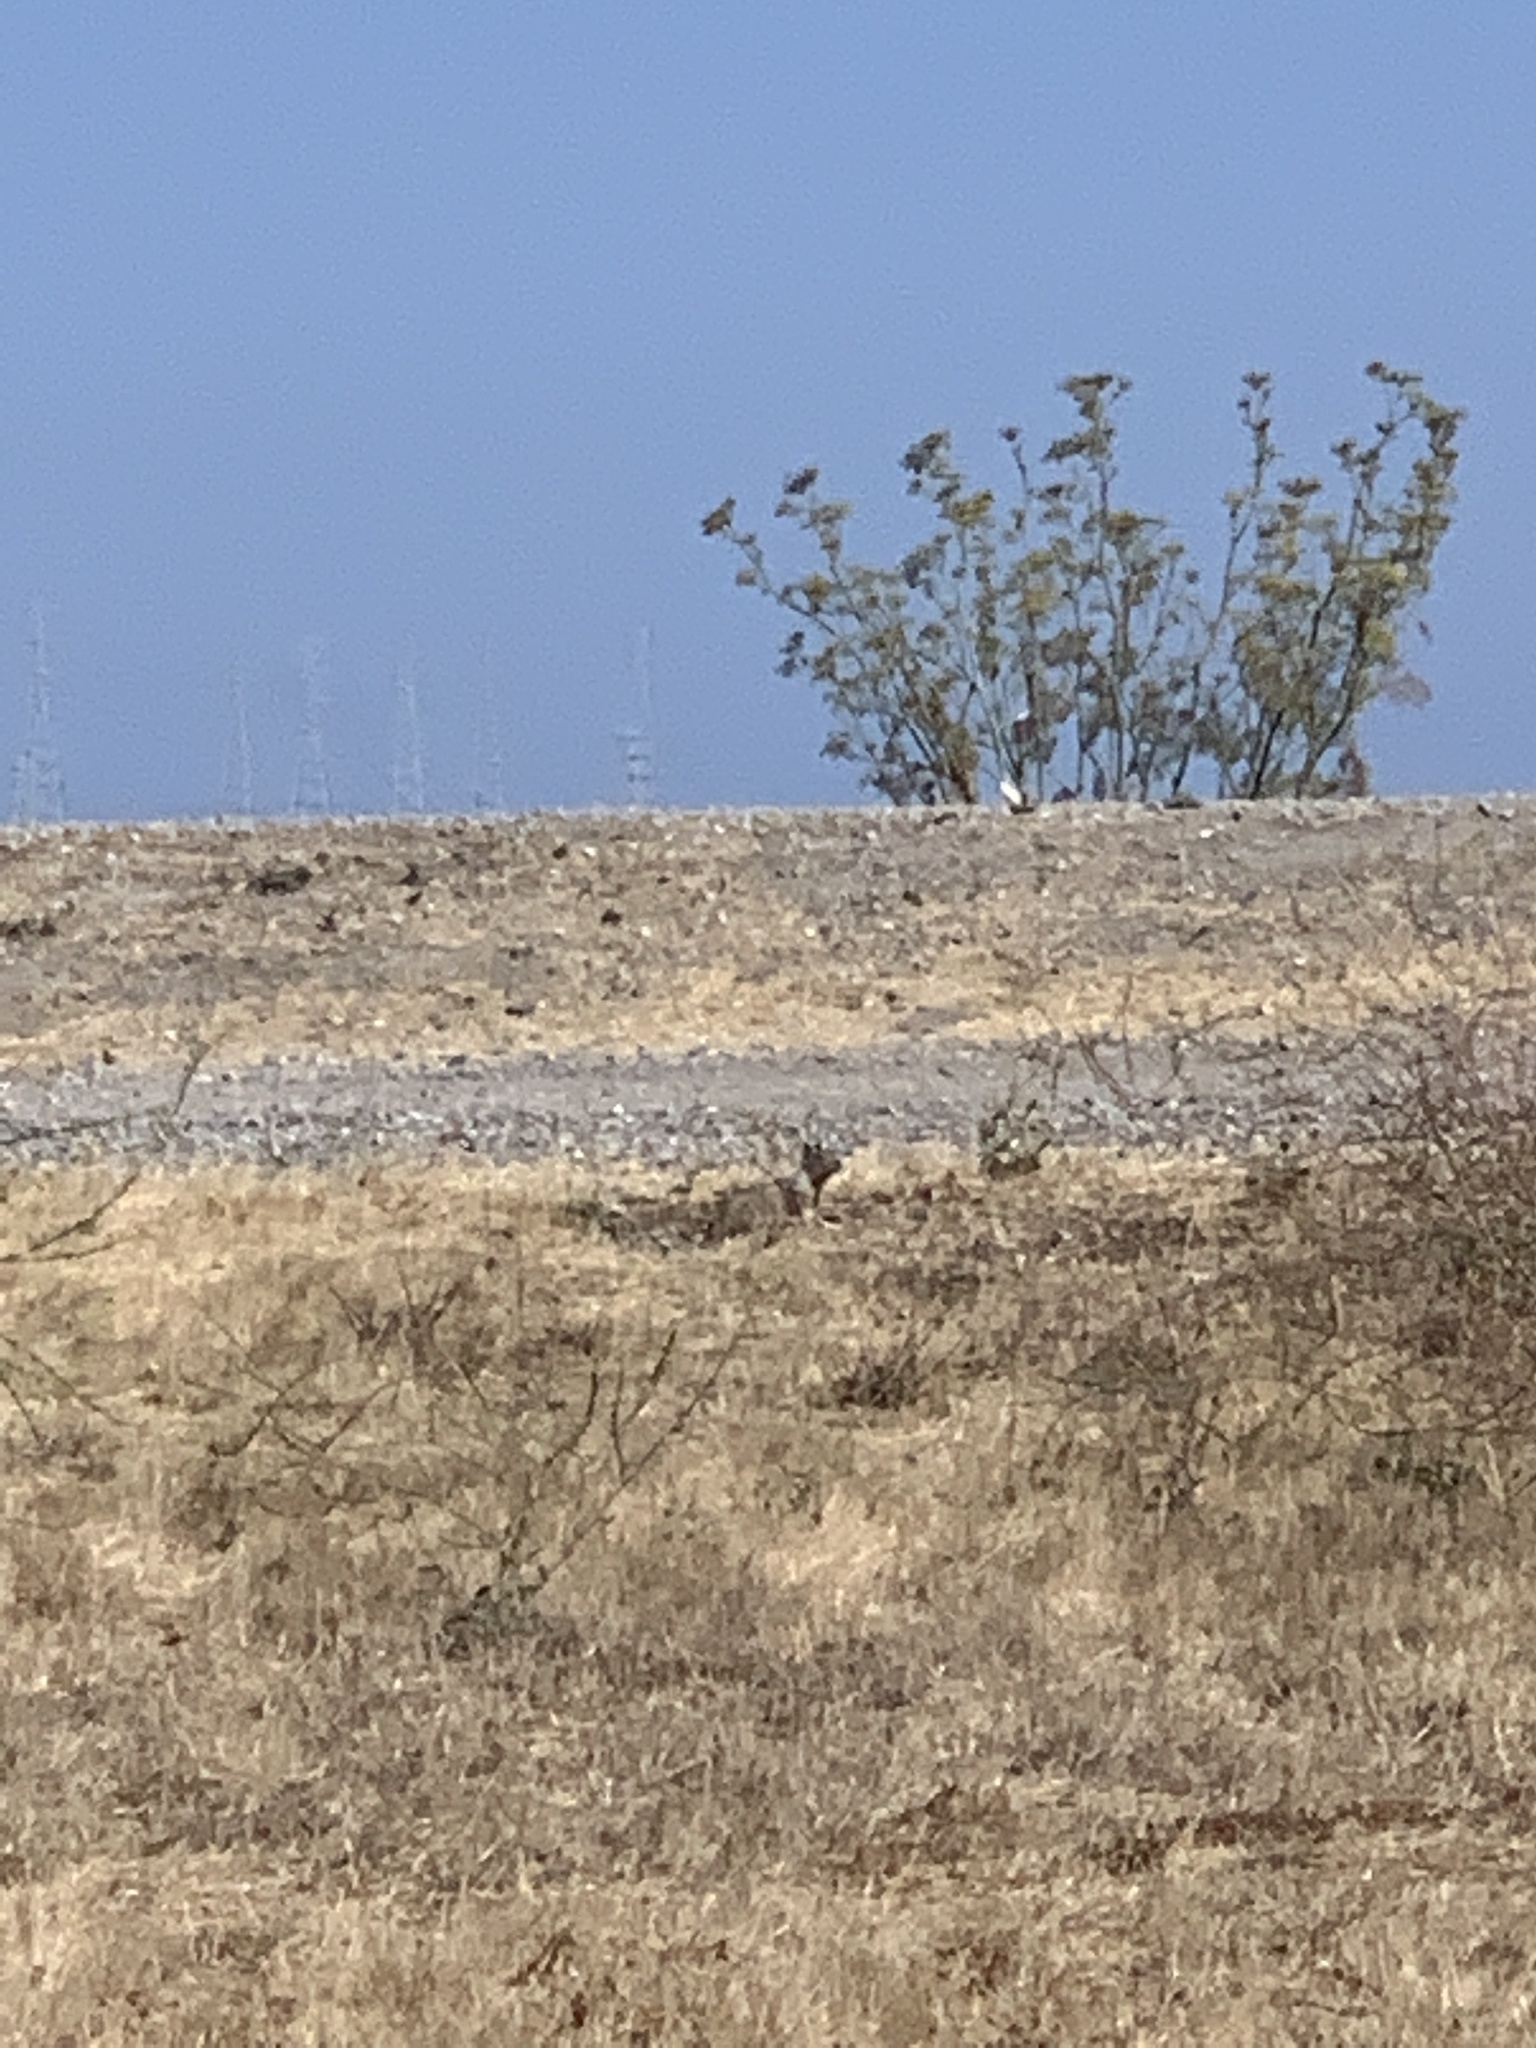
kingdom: Animalia
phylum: Chordata
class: Mammalia
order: Rodentia
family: Sciuridae
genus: Otospermophilus
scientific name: Otospermophilus beecheyi
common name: California ground squirrel
